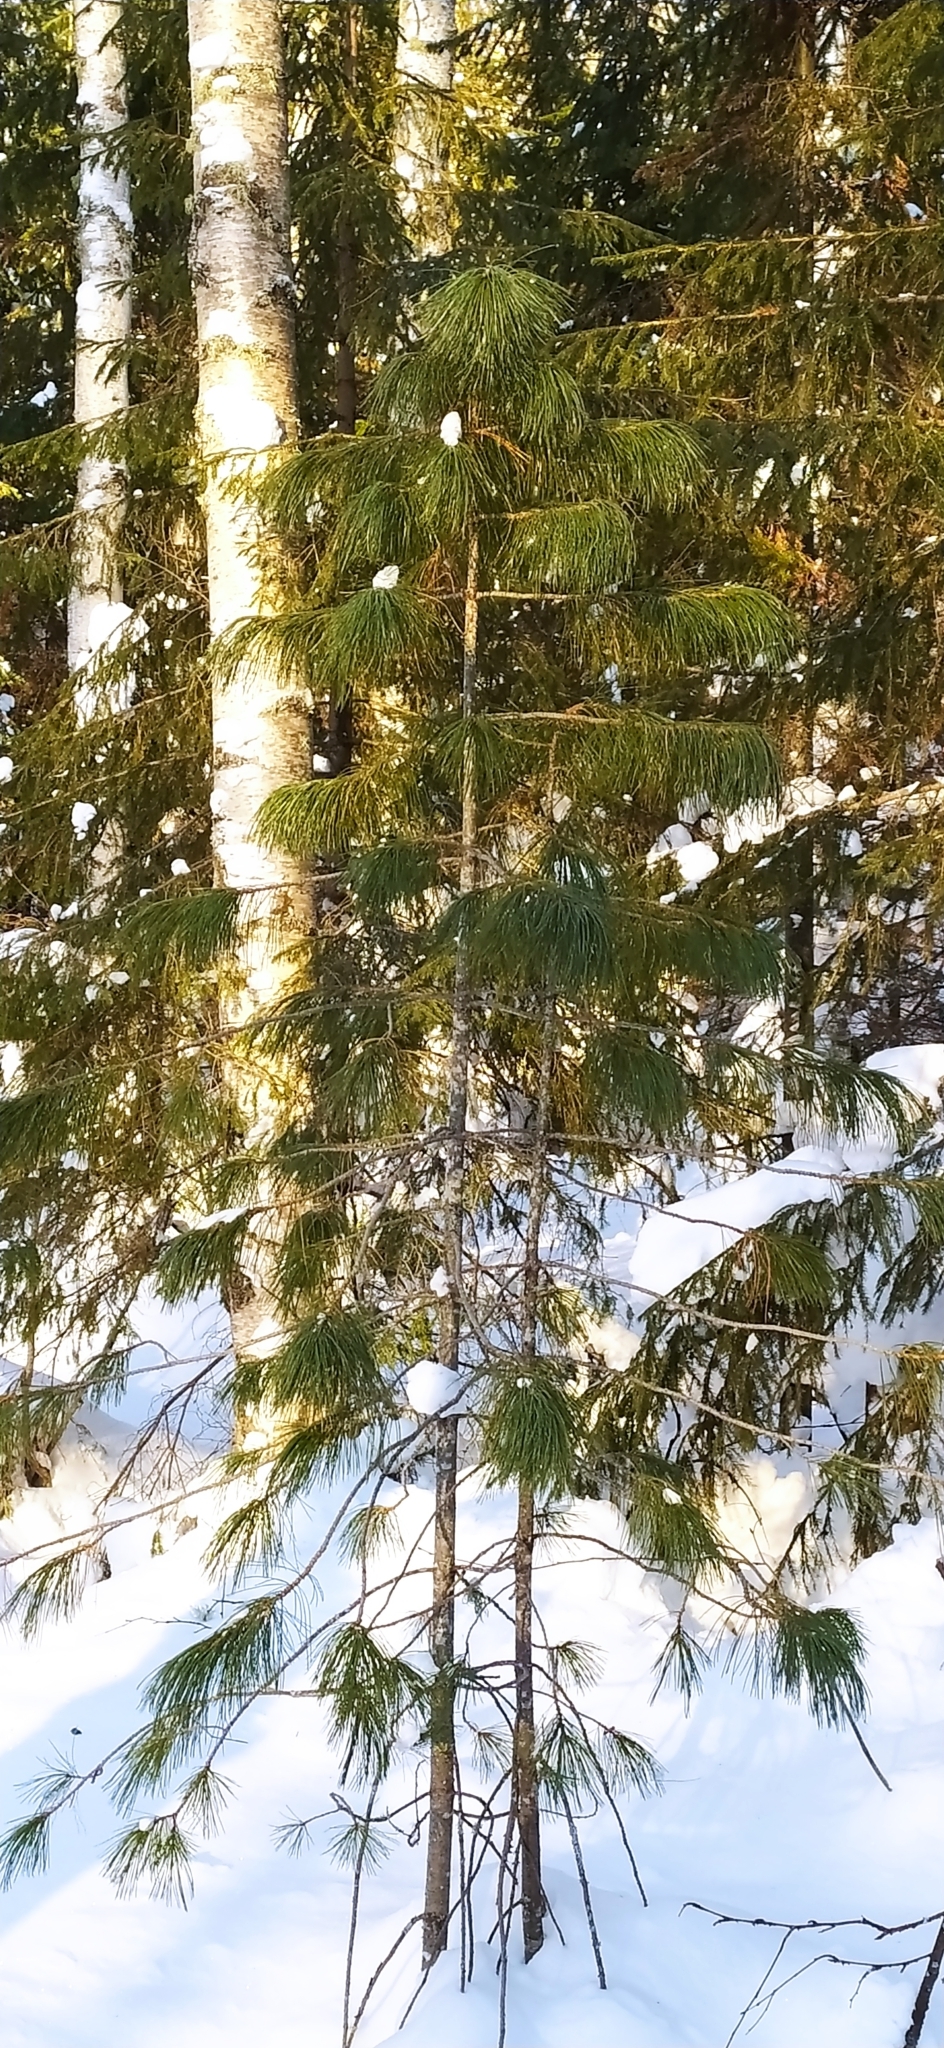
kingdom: Plantae
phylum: Tracheophyta
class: Pinopsida
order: Pinales
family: Pinaceae
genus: Pinus
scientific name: Pinus sibirica
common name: Siberian pine
